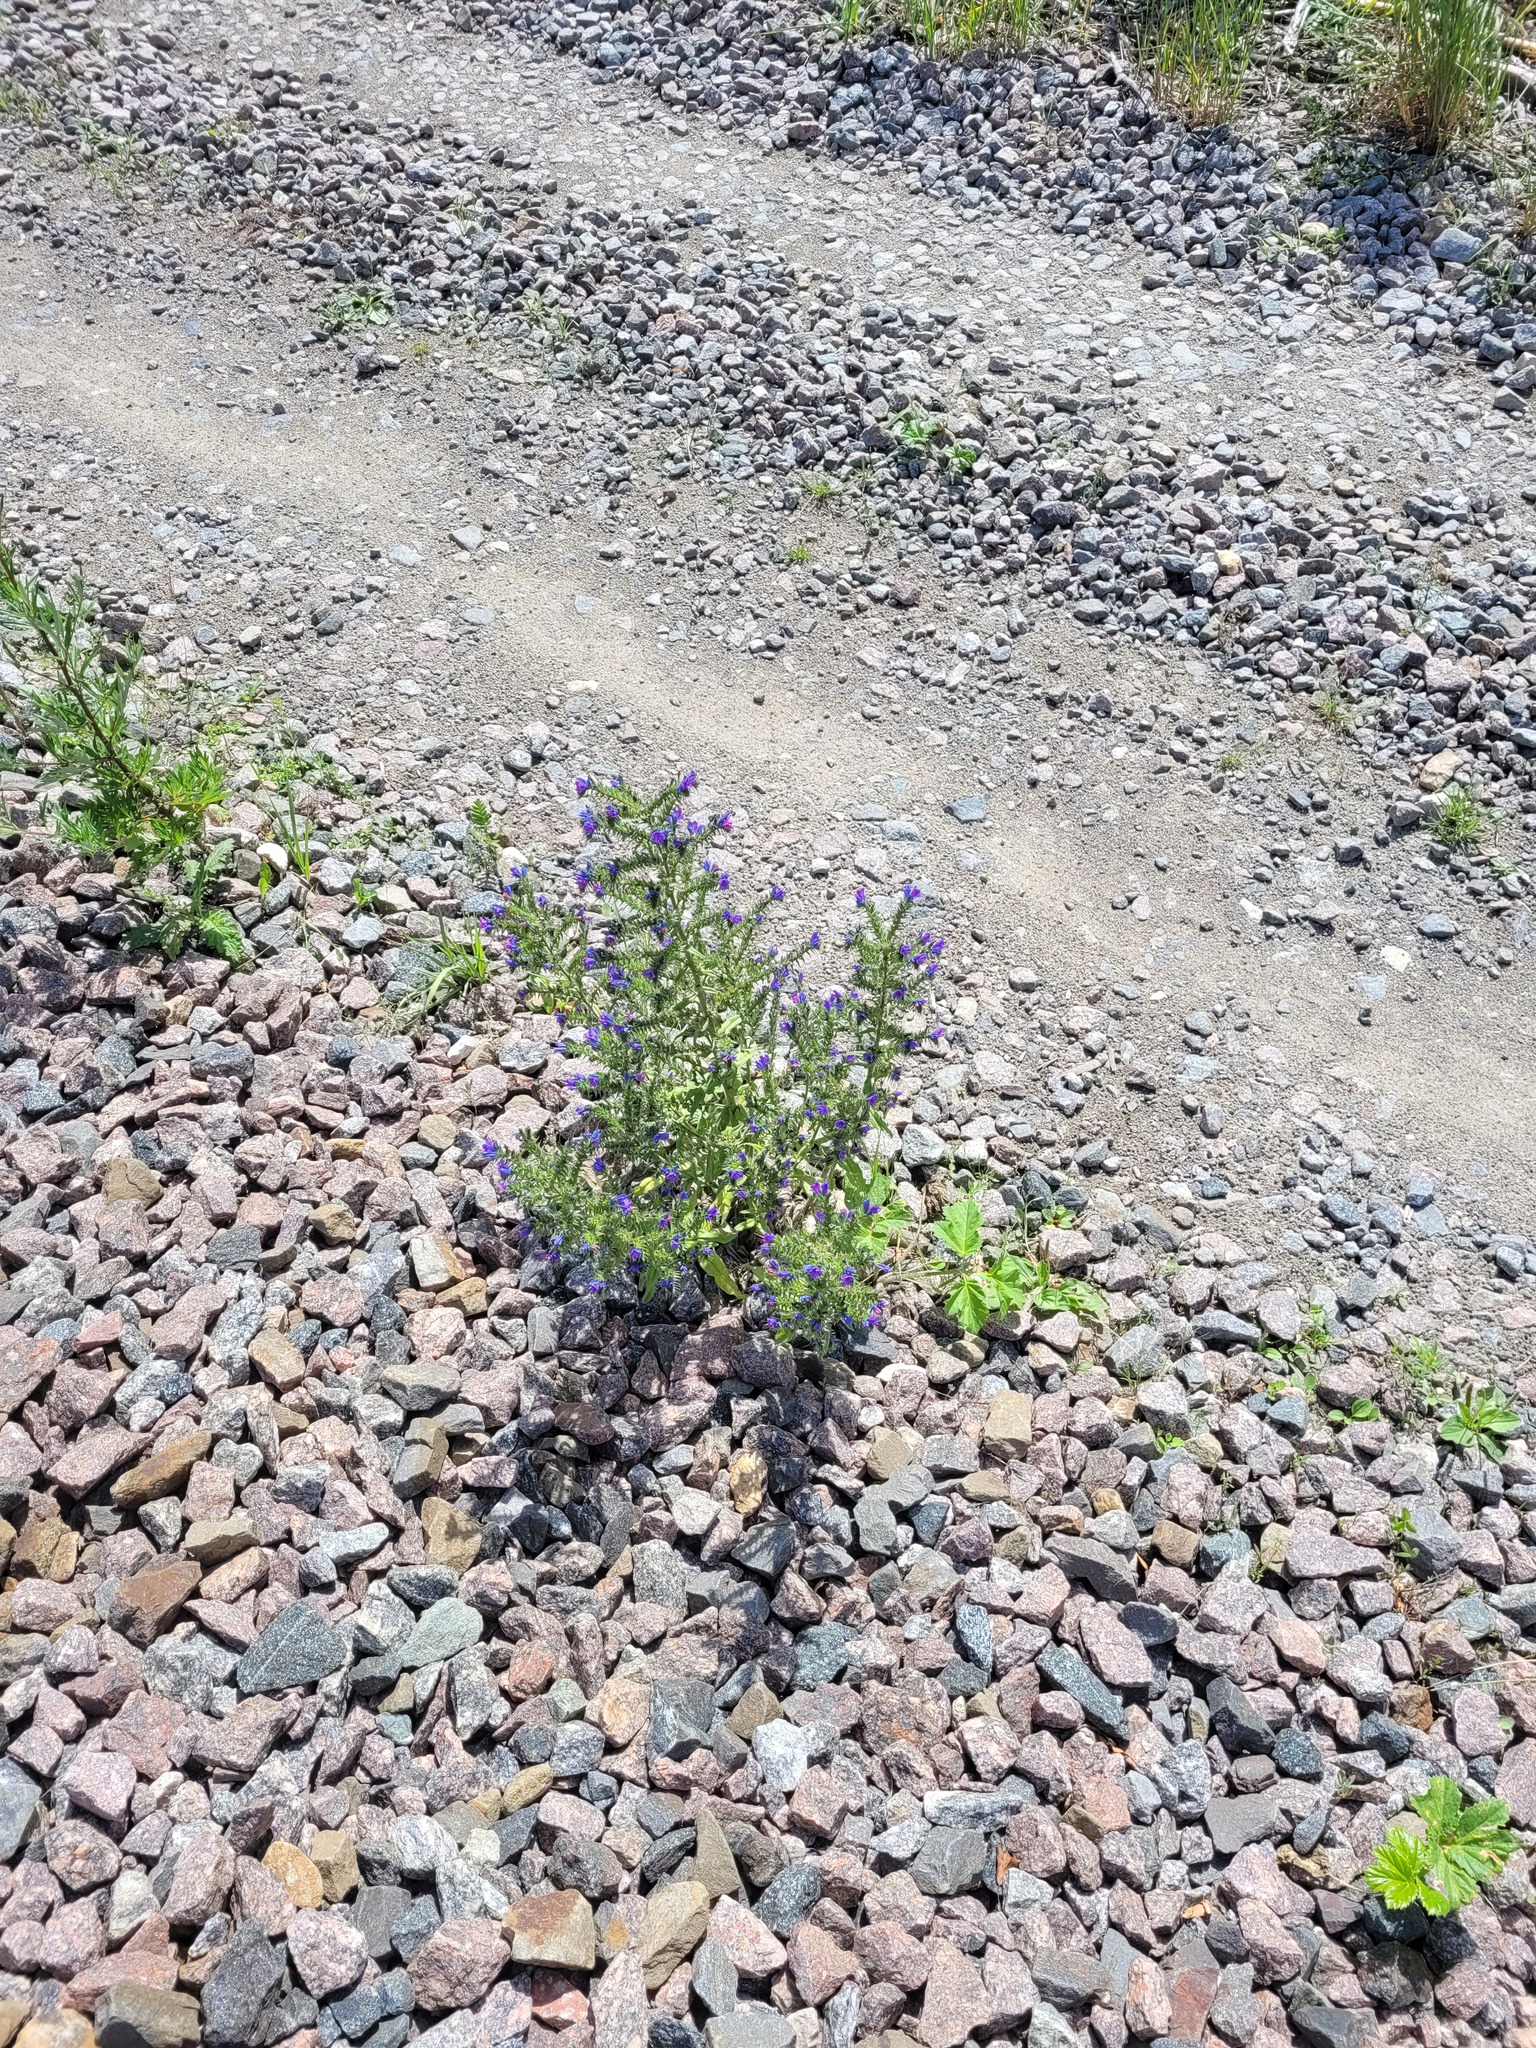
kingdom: Plantae
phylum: Tracheophyta
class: Magnoliopsida
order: Boraginales
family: Boraginaceae
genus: Echium
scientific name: Echium vulgare
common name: Common viper's bugloss
